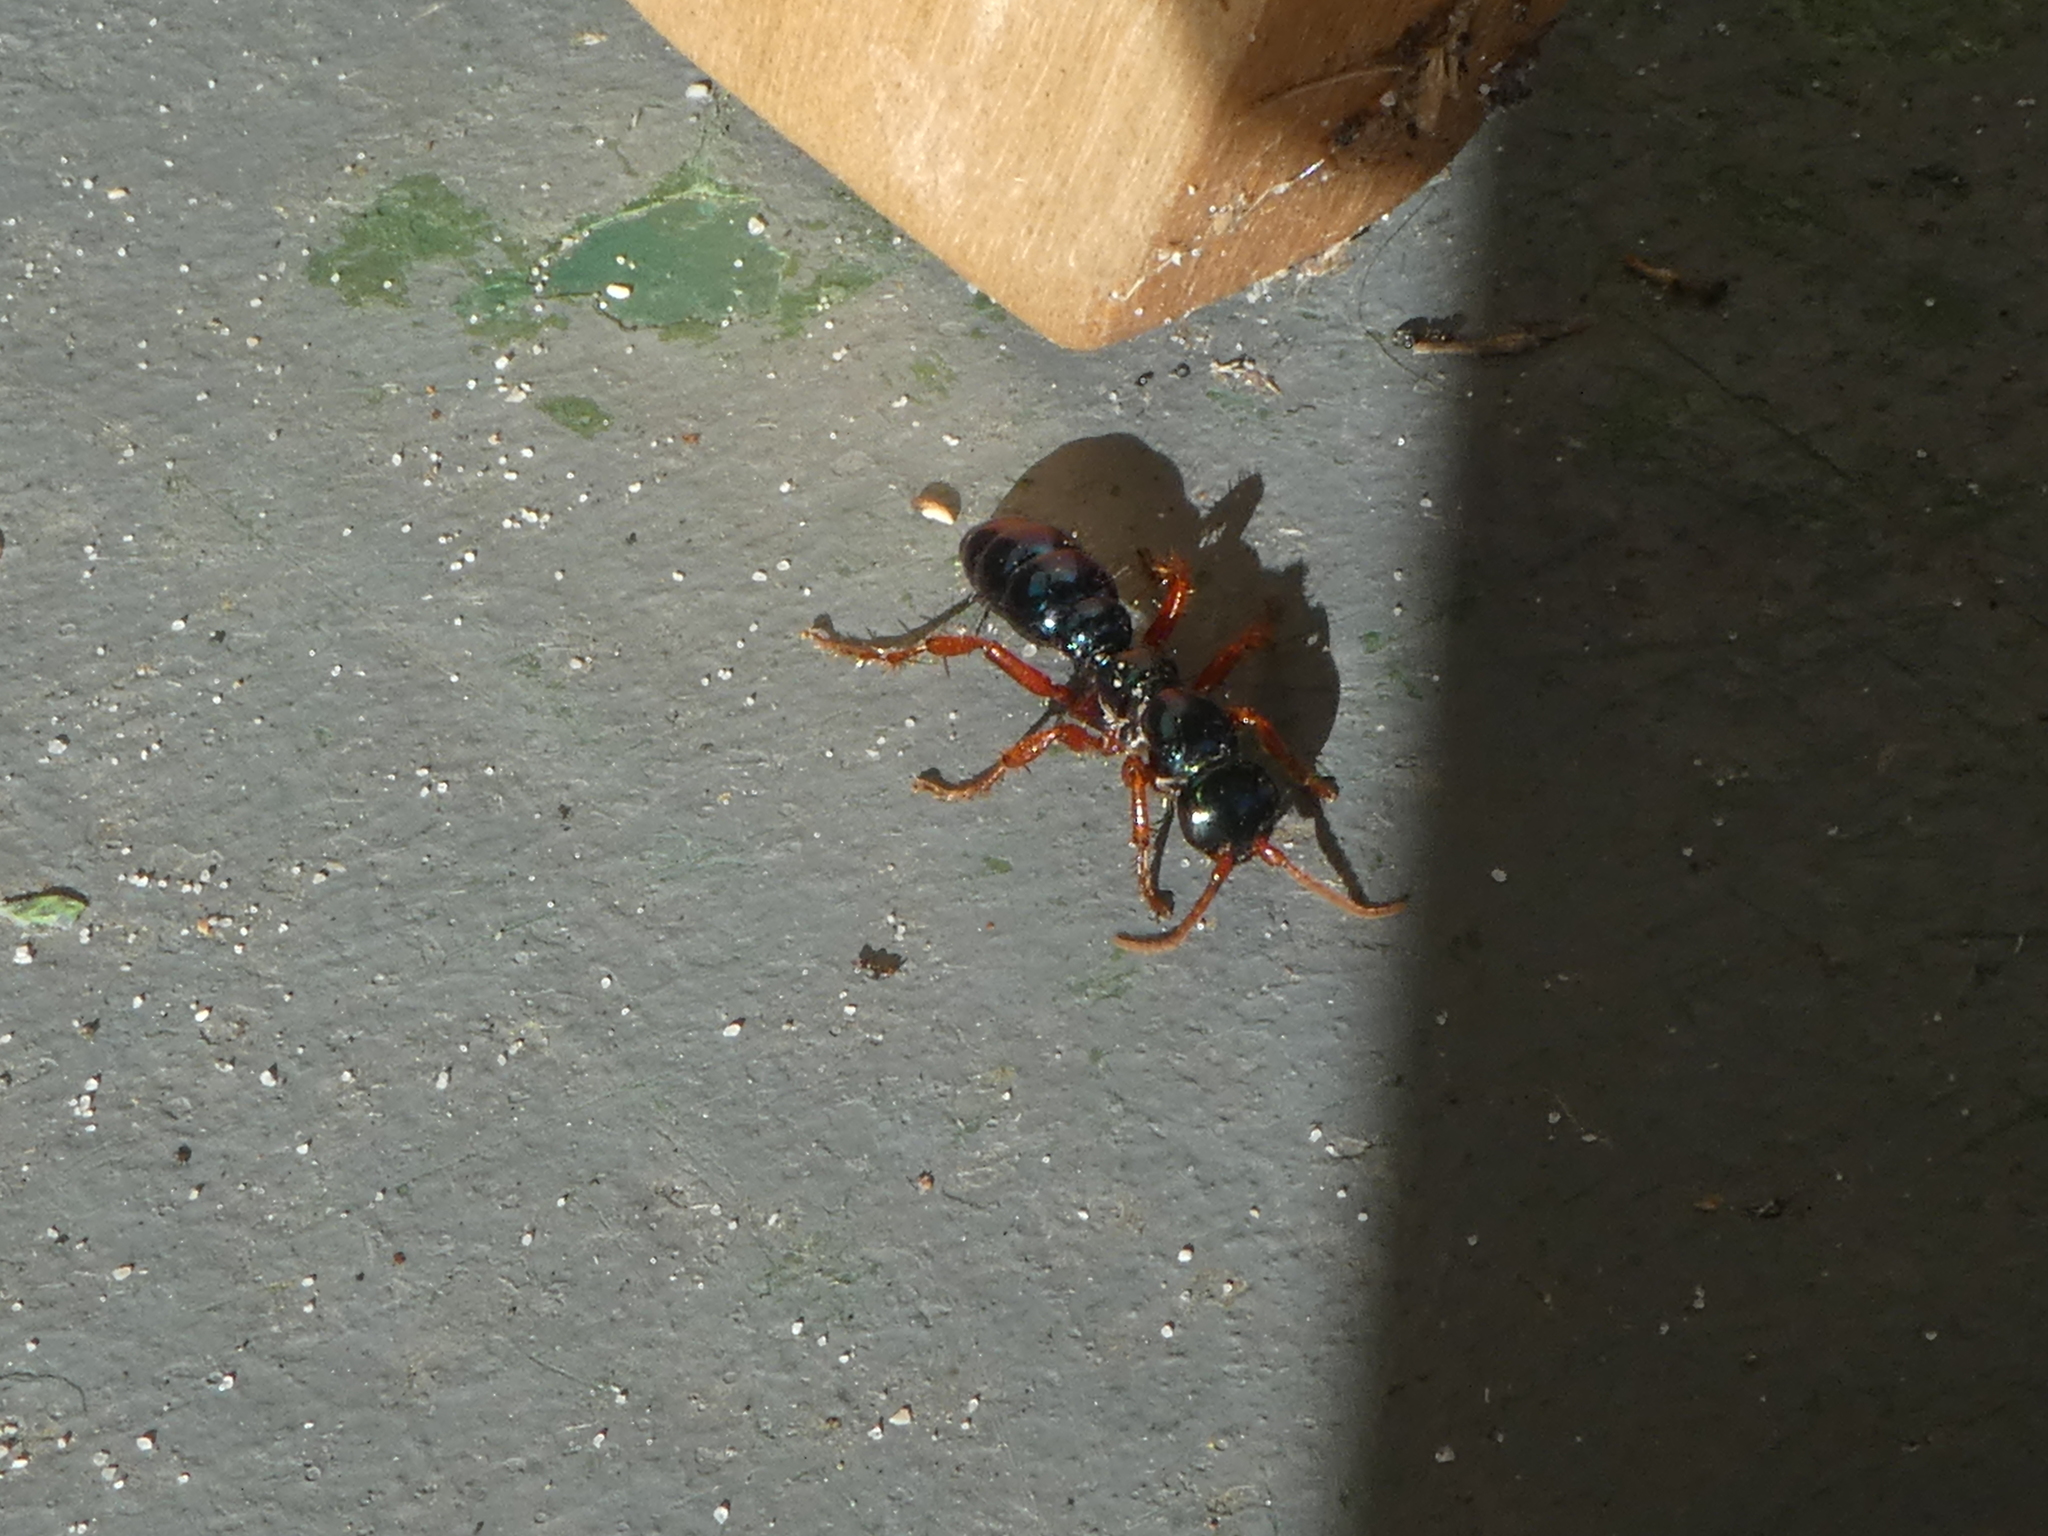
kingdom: Animalia
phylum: Arthropoda
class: Insecta
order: Hymenoptera
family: Tiphiidae
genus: Diamma
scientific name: Diamma
